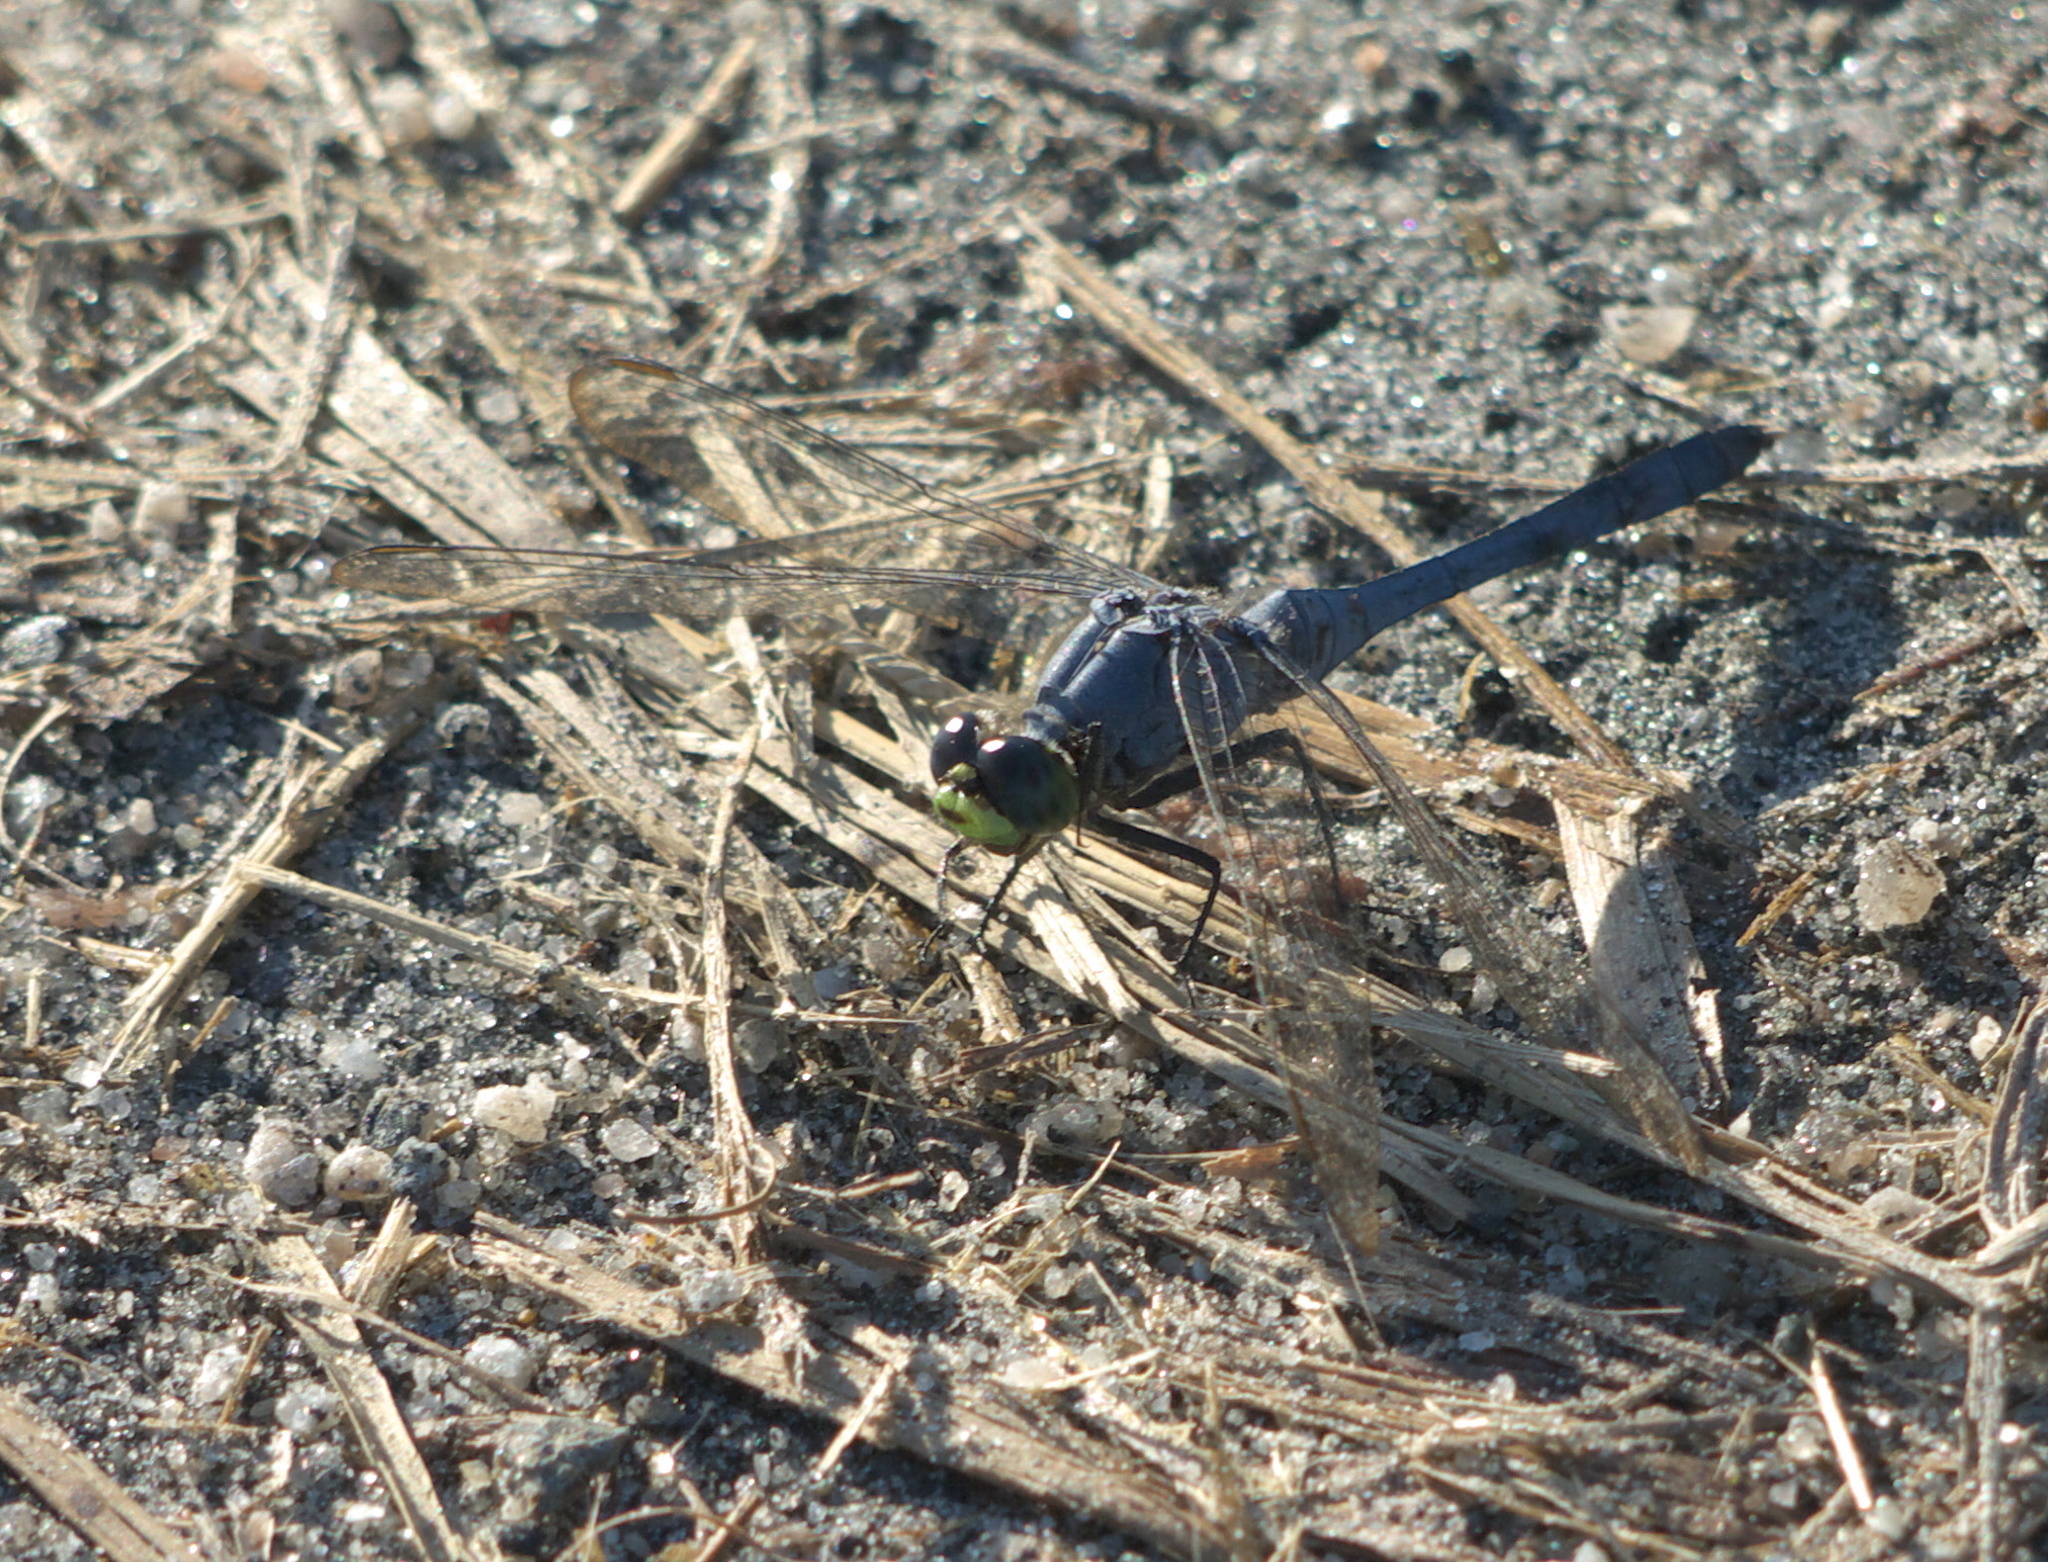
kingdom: Animalia
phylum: Arthropoda
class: Insecta
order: Odonata
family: Libellulidae
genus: Erythemis
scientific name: Erythemis simplicicollis
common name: Eastern pondhawk
